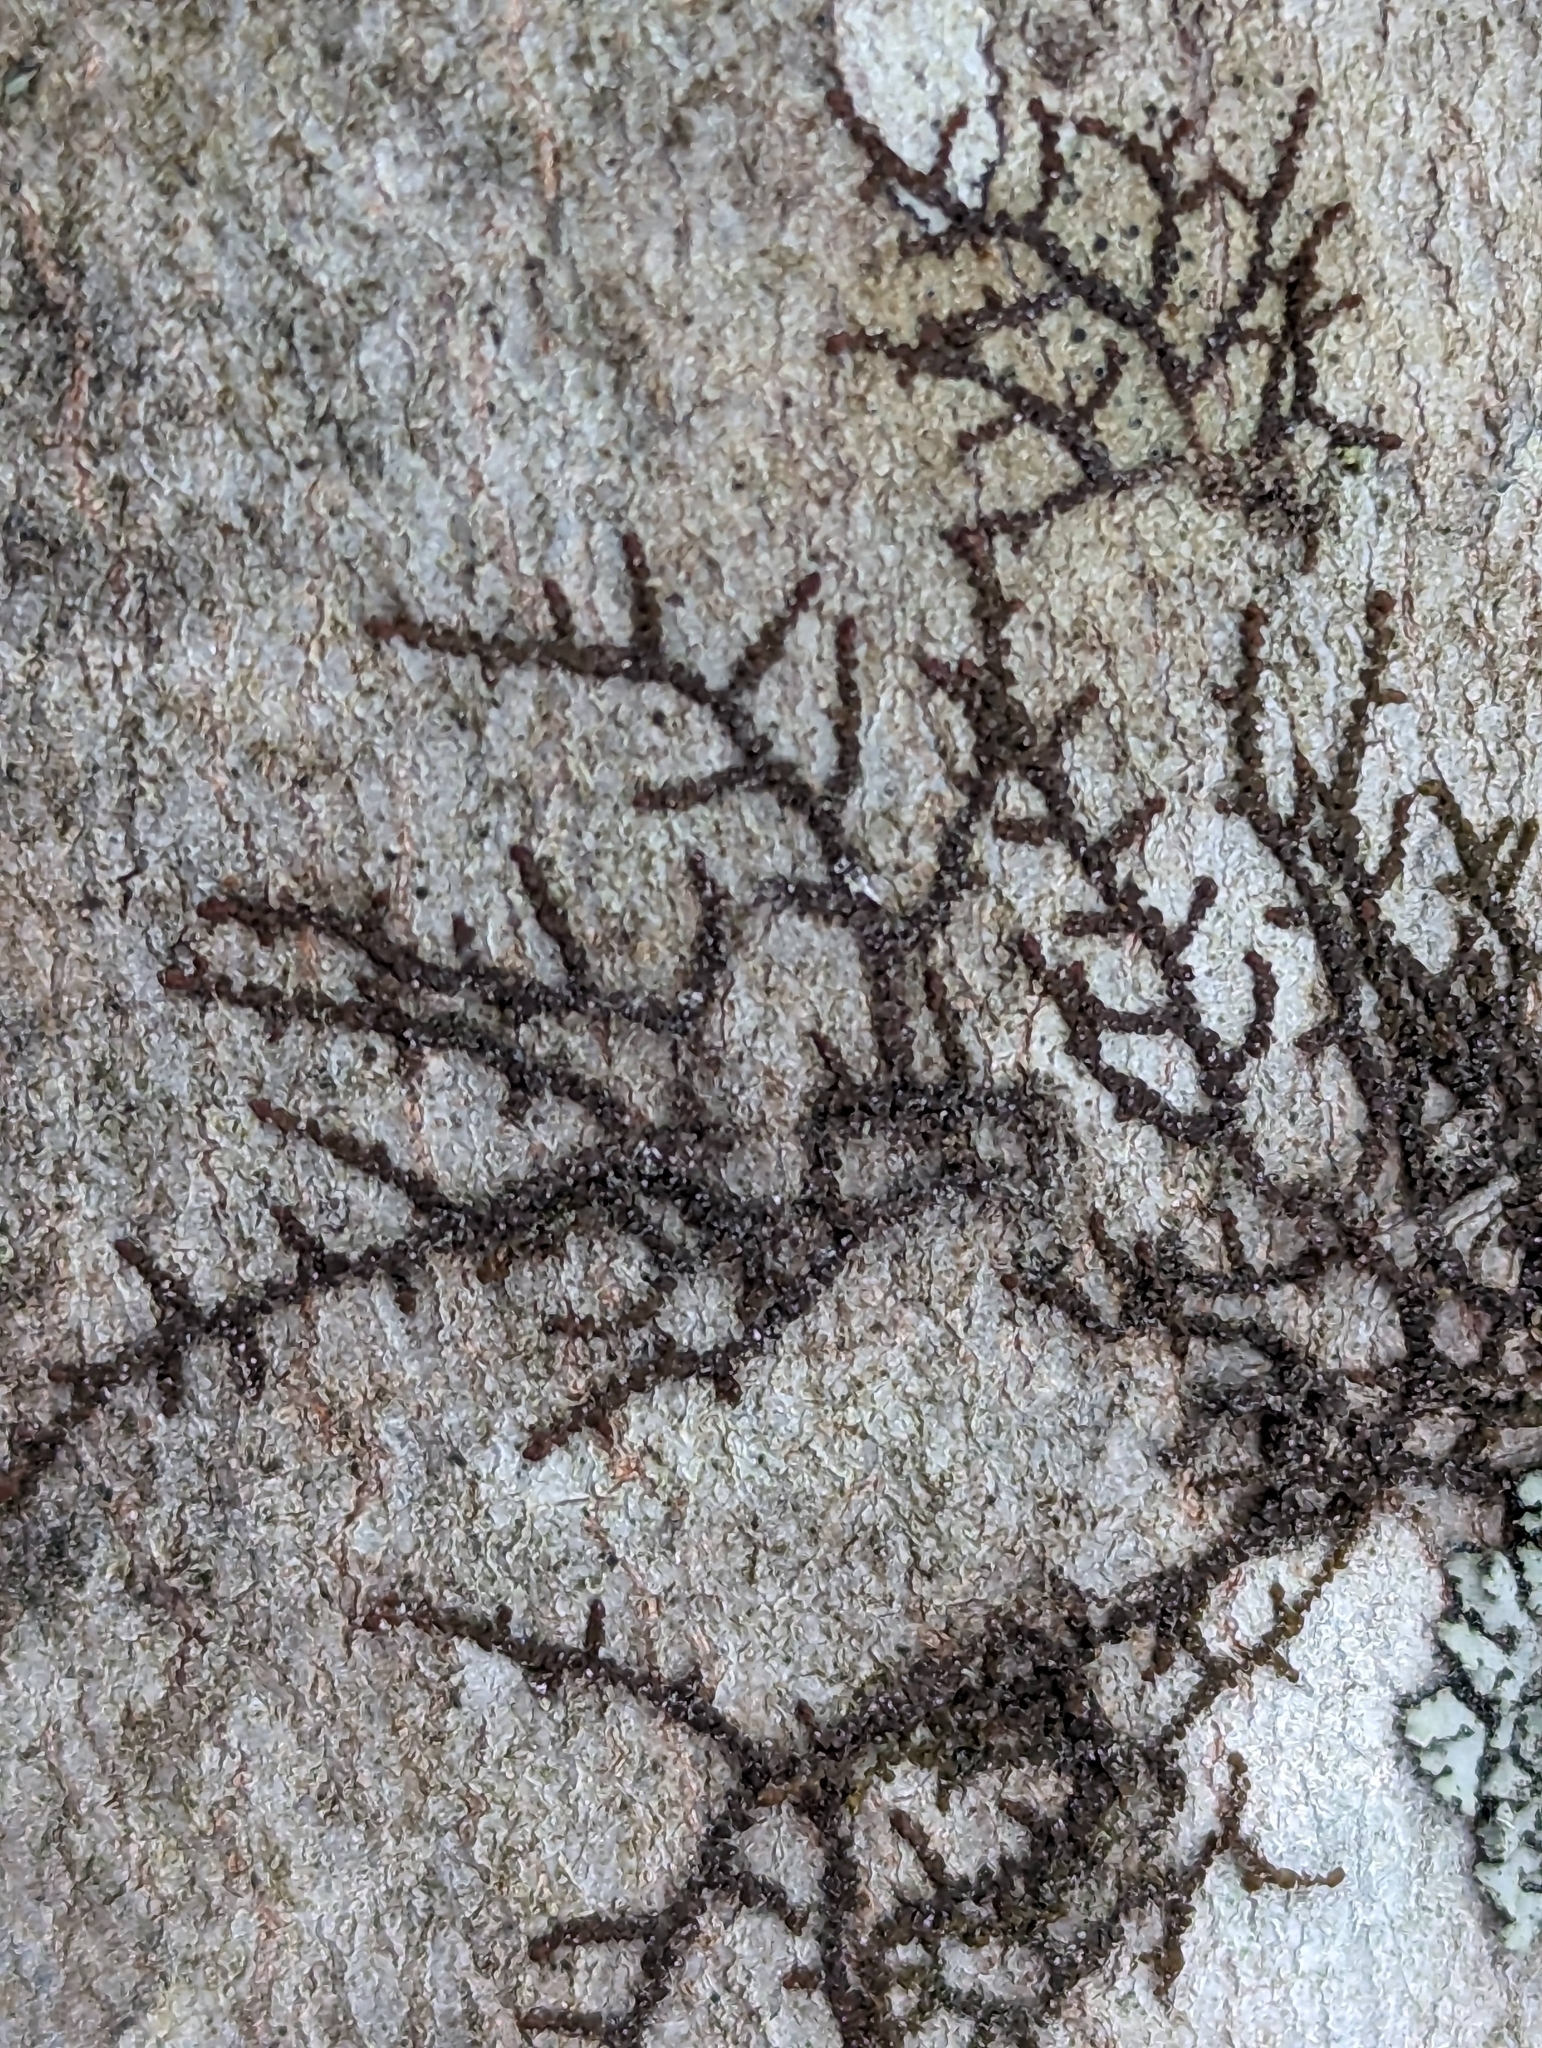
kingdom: Plantae
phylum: Marchantiophyta
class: Jungermanniopsida
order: Porellales
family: Frullaniaceae
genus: Frullania
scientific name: Frullania eboracensis
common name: New york scalewort
